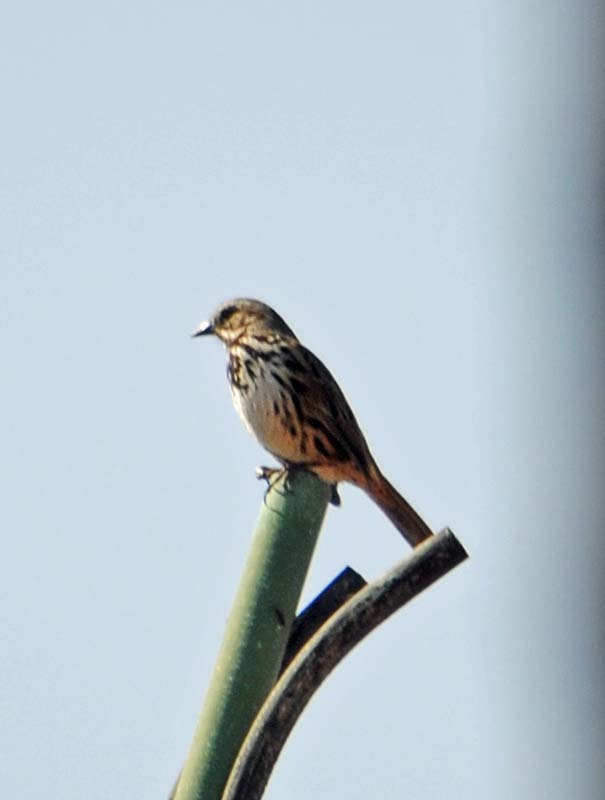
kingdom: Animalia
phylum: Chordata
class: Aves
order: Passeriformes
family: Passerellidae
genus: Melospiza
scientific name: Melospiza melodia
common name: Song sparrow
